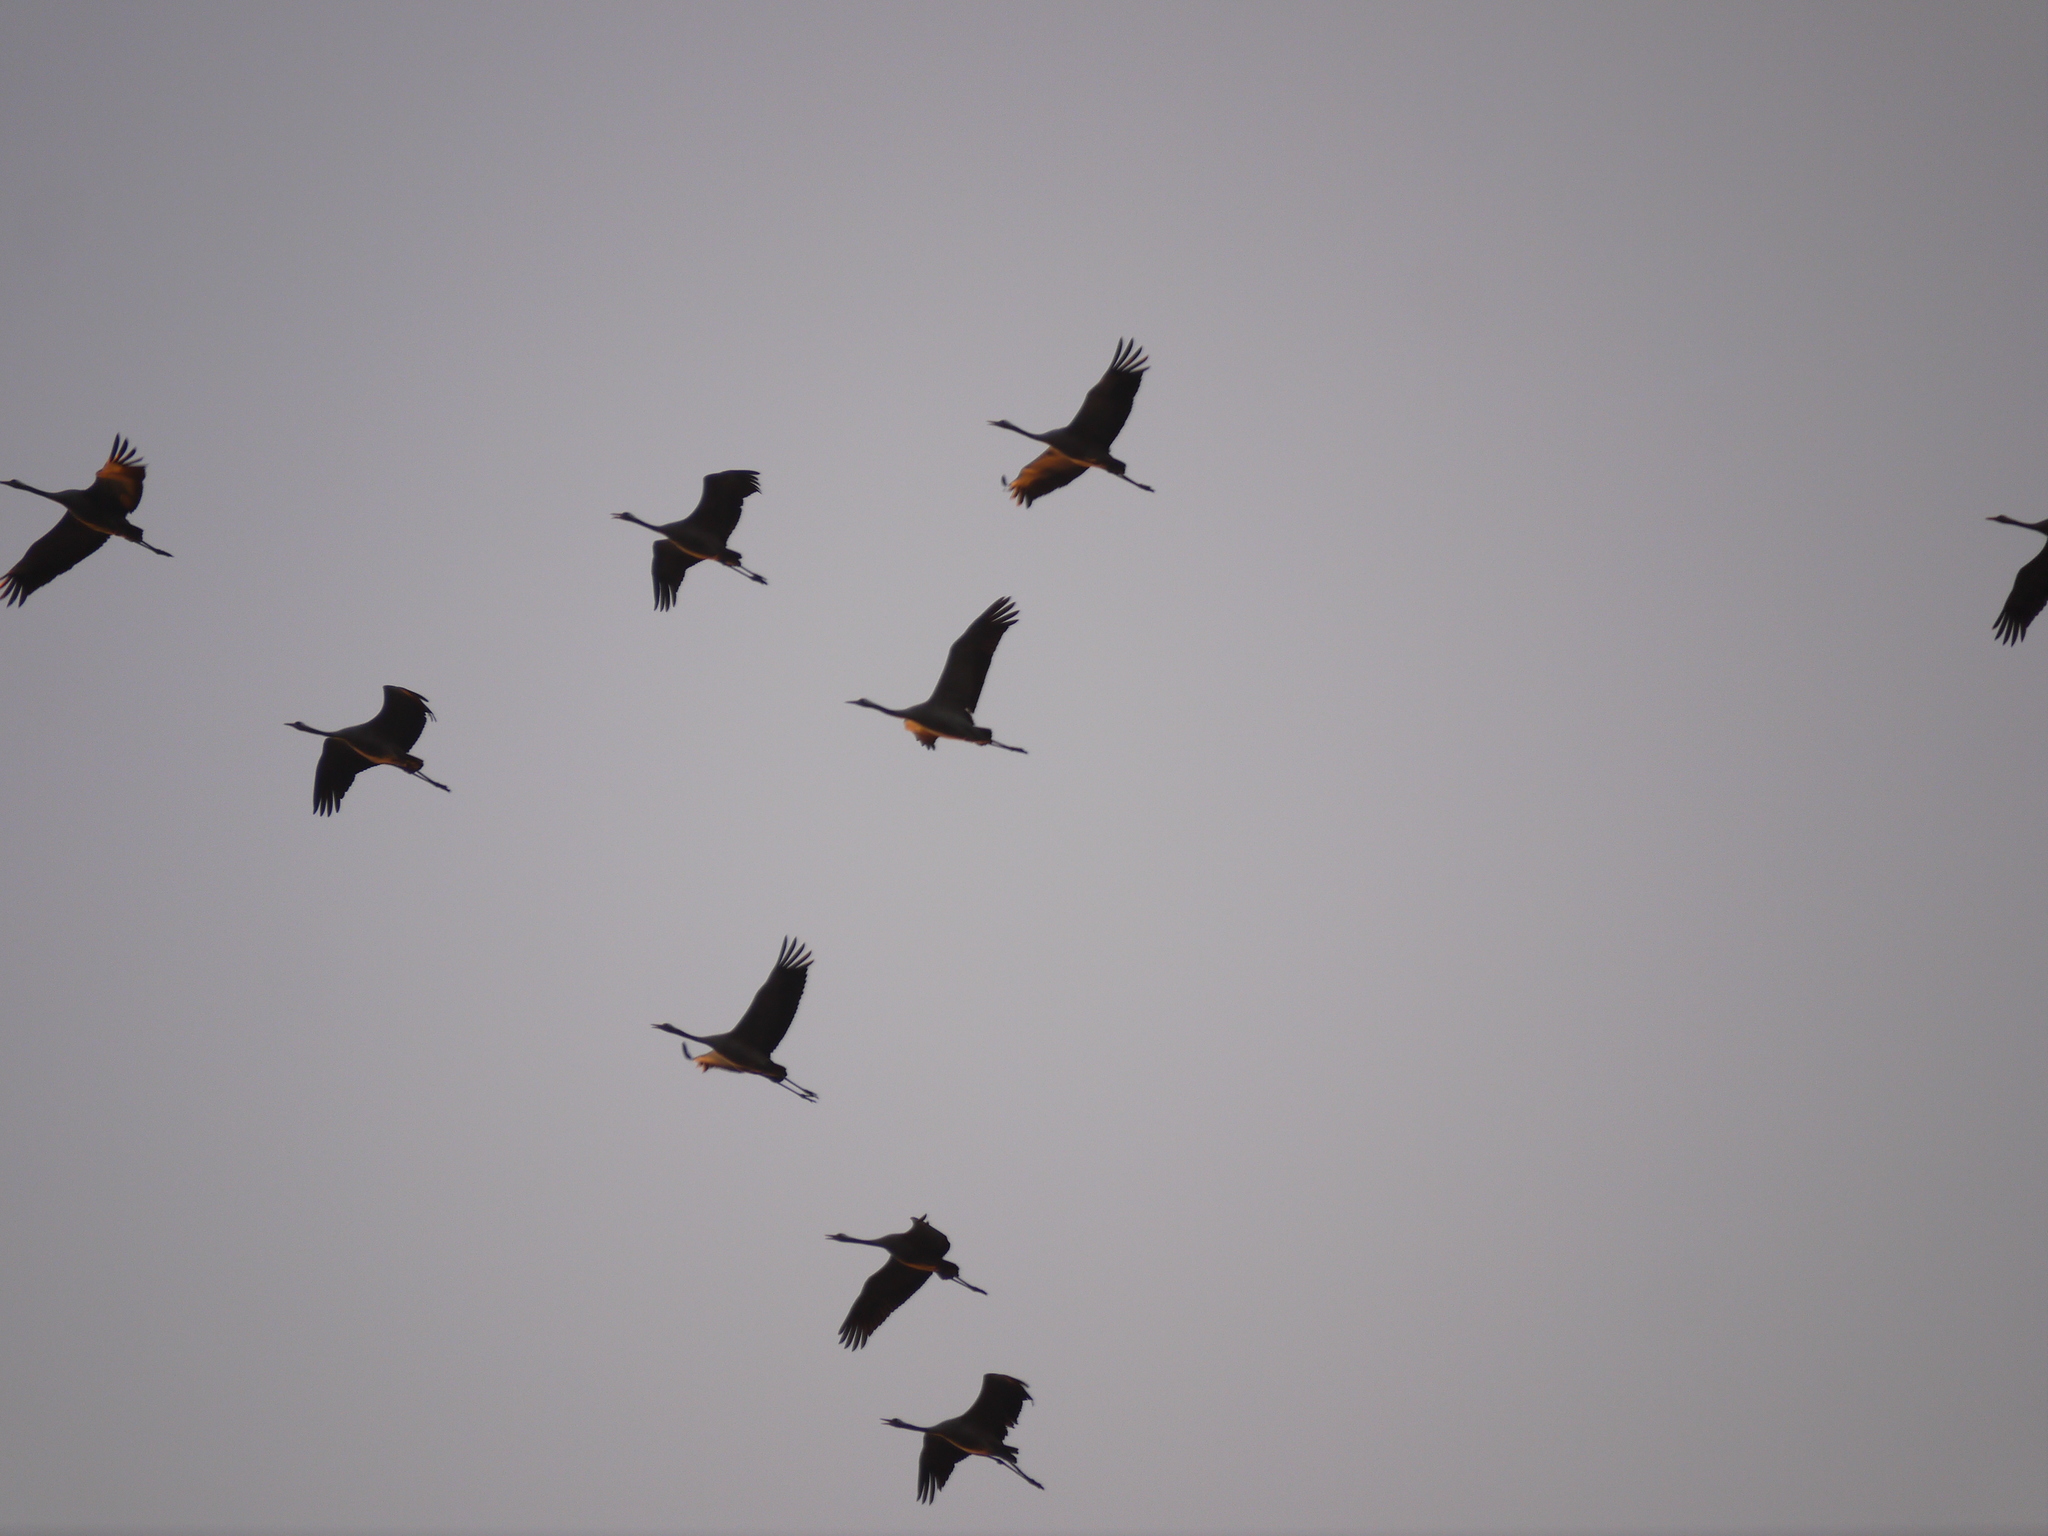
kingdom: Animalia
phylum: Chordata
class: Aves
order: Gruiformes
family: Gruidae
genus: Grus
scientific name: Grus grus
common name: Common crane
